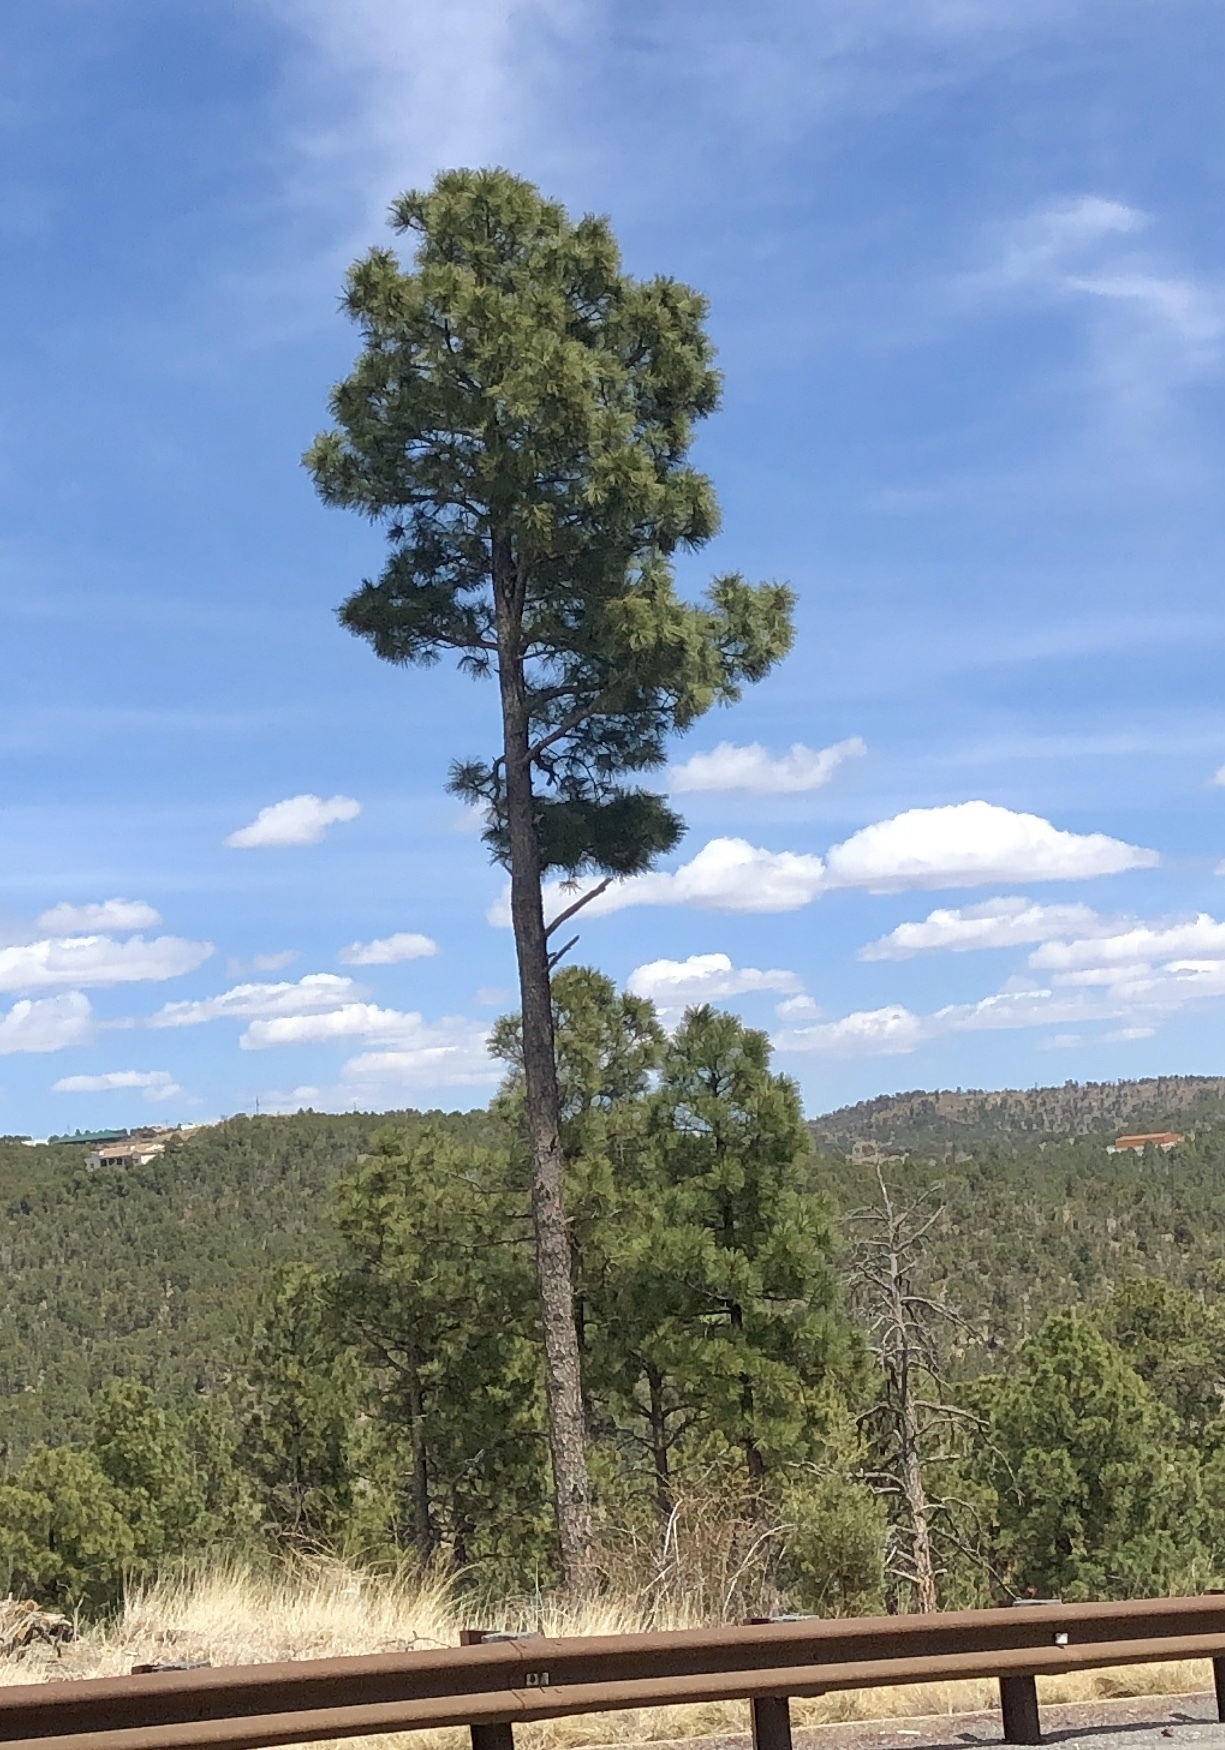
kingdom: Plantae
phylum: Tracheophyta
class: Pinopsida
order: Pinales
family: Pinaceae
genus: Pinus
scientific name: Pinus ponderosa
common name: Western yellow-pine
